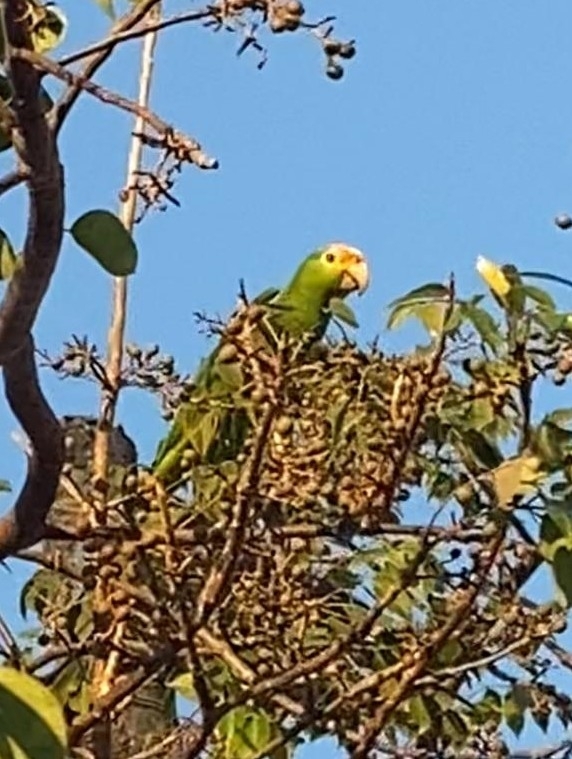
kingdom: Animalia
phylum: Chordata
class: Aves
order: Psittaciformes
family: Psittacidae
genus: Amazona
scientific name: Amazona
